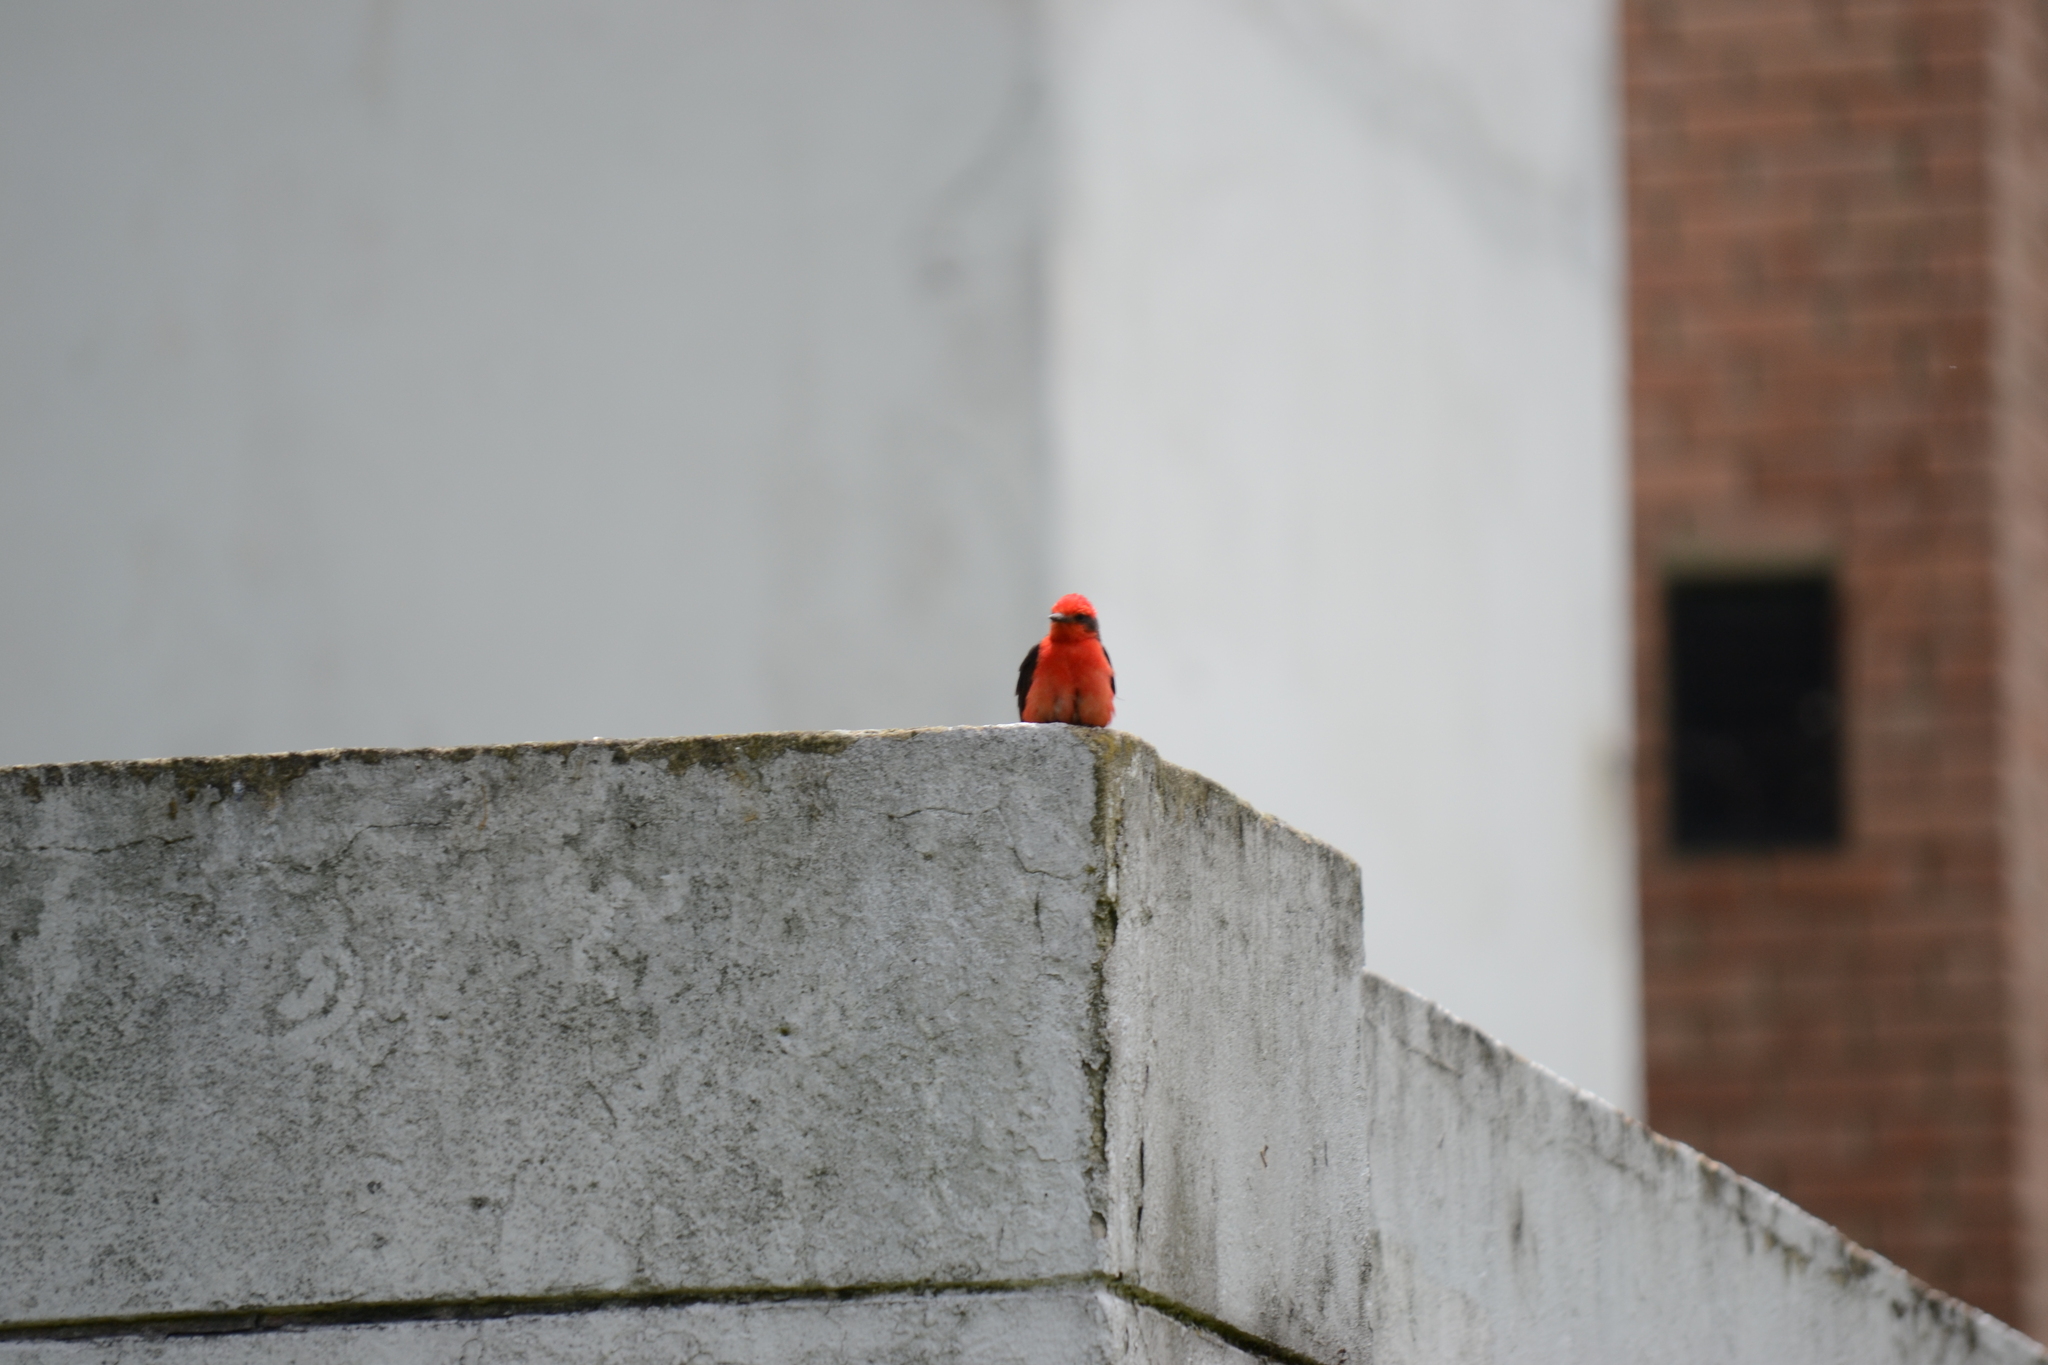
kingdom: Animalia
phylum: Chordata
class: Aves
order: Passeriformes
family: Tyrannidae
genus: Pyrocephalus
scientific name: Pyrocephalus rubinus
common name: Vermilion flycatcher
